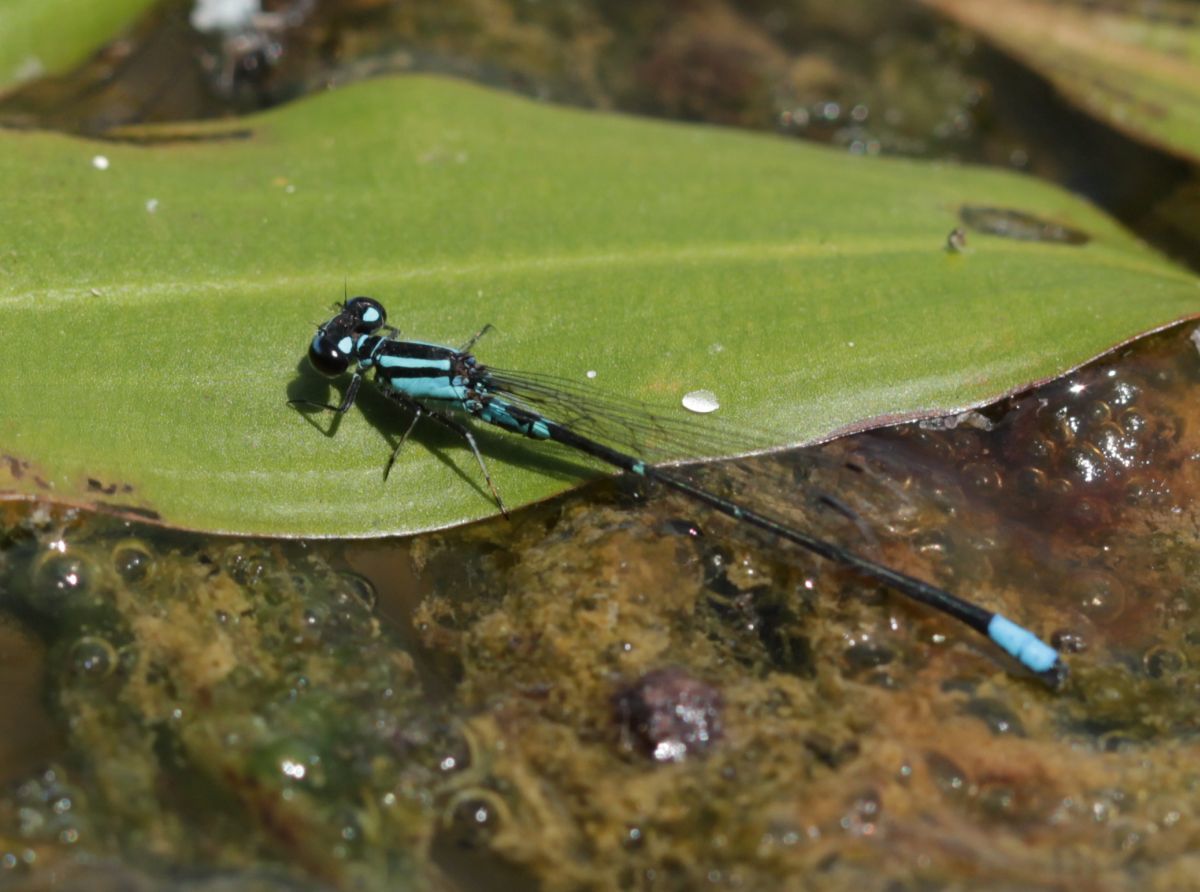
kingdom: Animalia
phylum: Arthropoda
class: Insecta
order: Odonata
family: Coenagrionidae
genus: Enallagma
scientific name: Enallagma geminatum
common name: Skimming bluet
